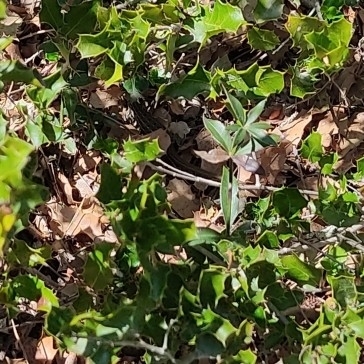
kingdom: Animalia
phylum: Chordata
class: Squamata
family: Lacertidae
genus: Psammodromus
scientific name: Psammodromus edwarsianus
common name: East iberian psammodromus
